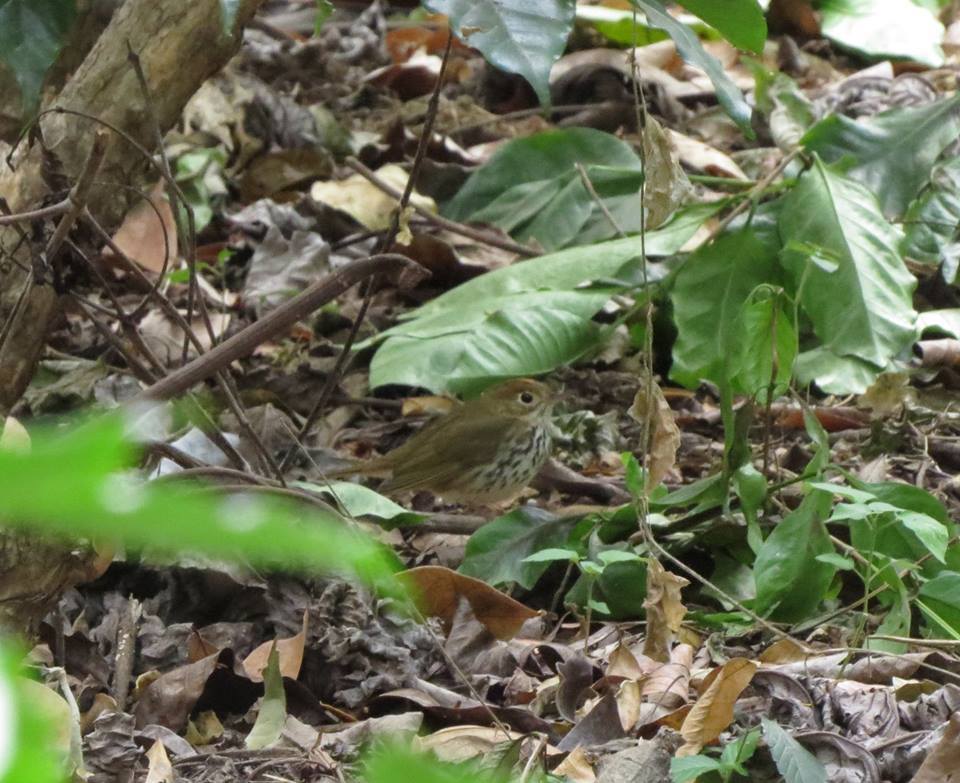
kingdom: Animalia
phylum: Chordata
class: Aves
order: Passeriformes
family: Parulidae
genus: Seiurus
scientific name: Seiurus aurocapilla
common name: Ovenbird
